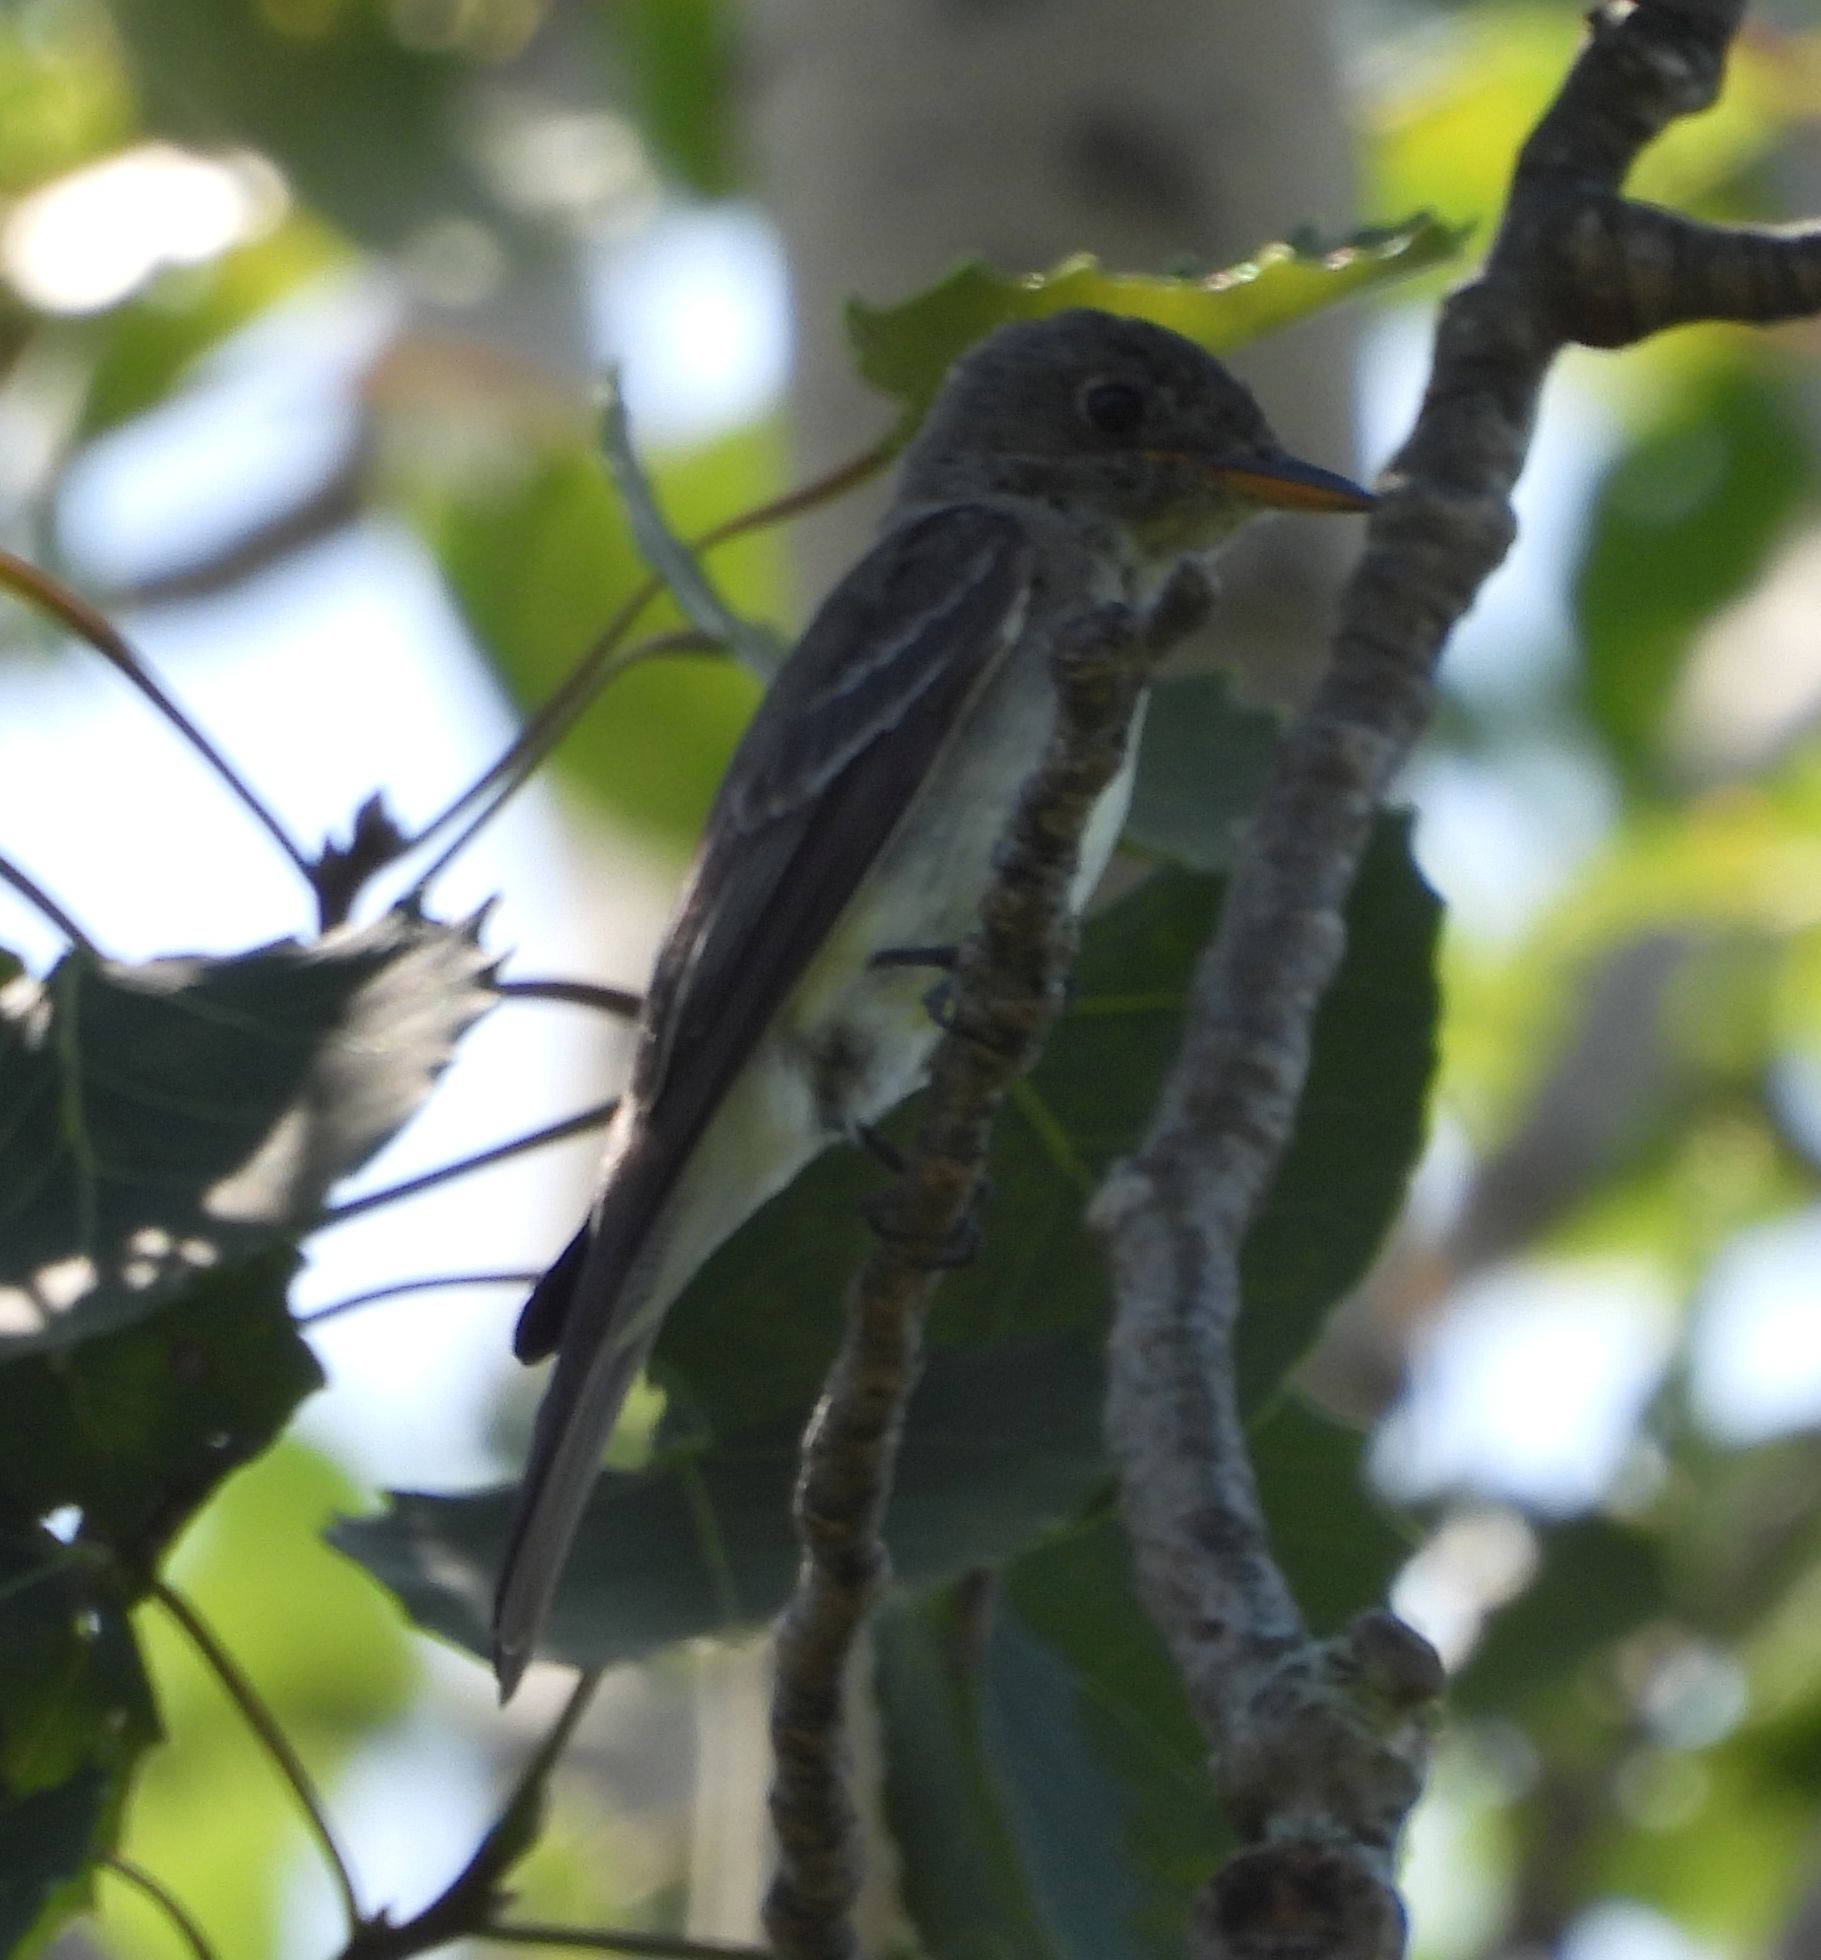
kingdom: Animalia
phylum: Chordata
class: Aves
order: Passeriformes
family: Tyrannidae
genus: Contopus
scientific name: Contopus virens
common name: Eastern wood-pewee
